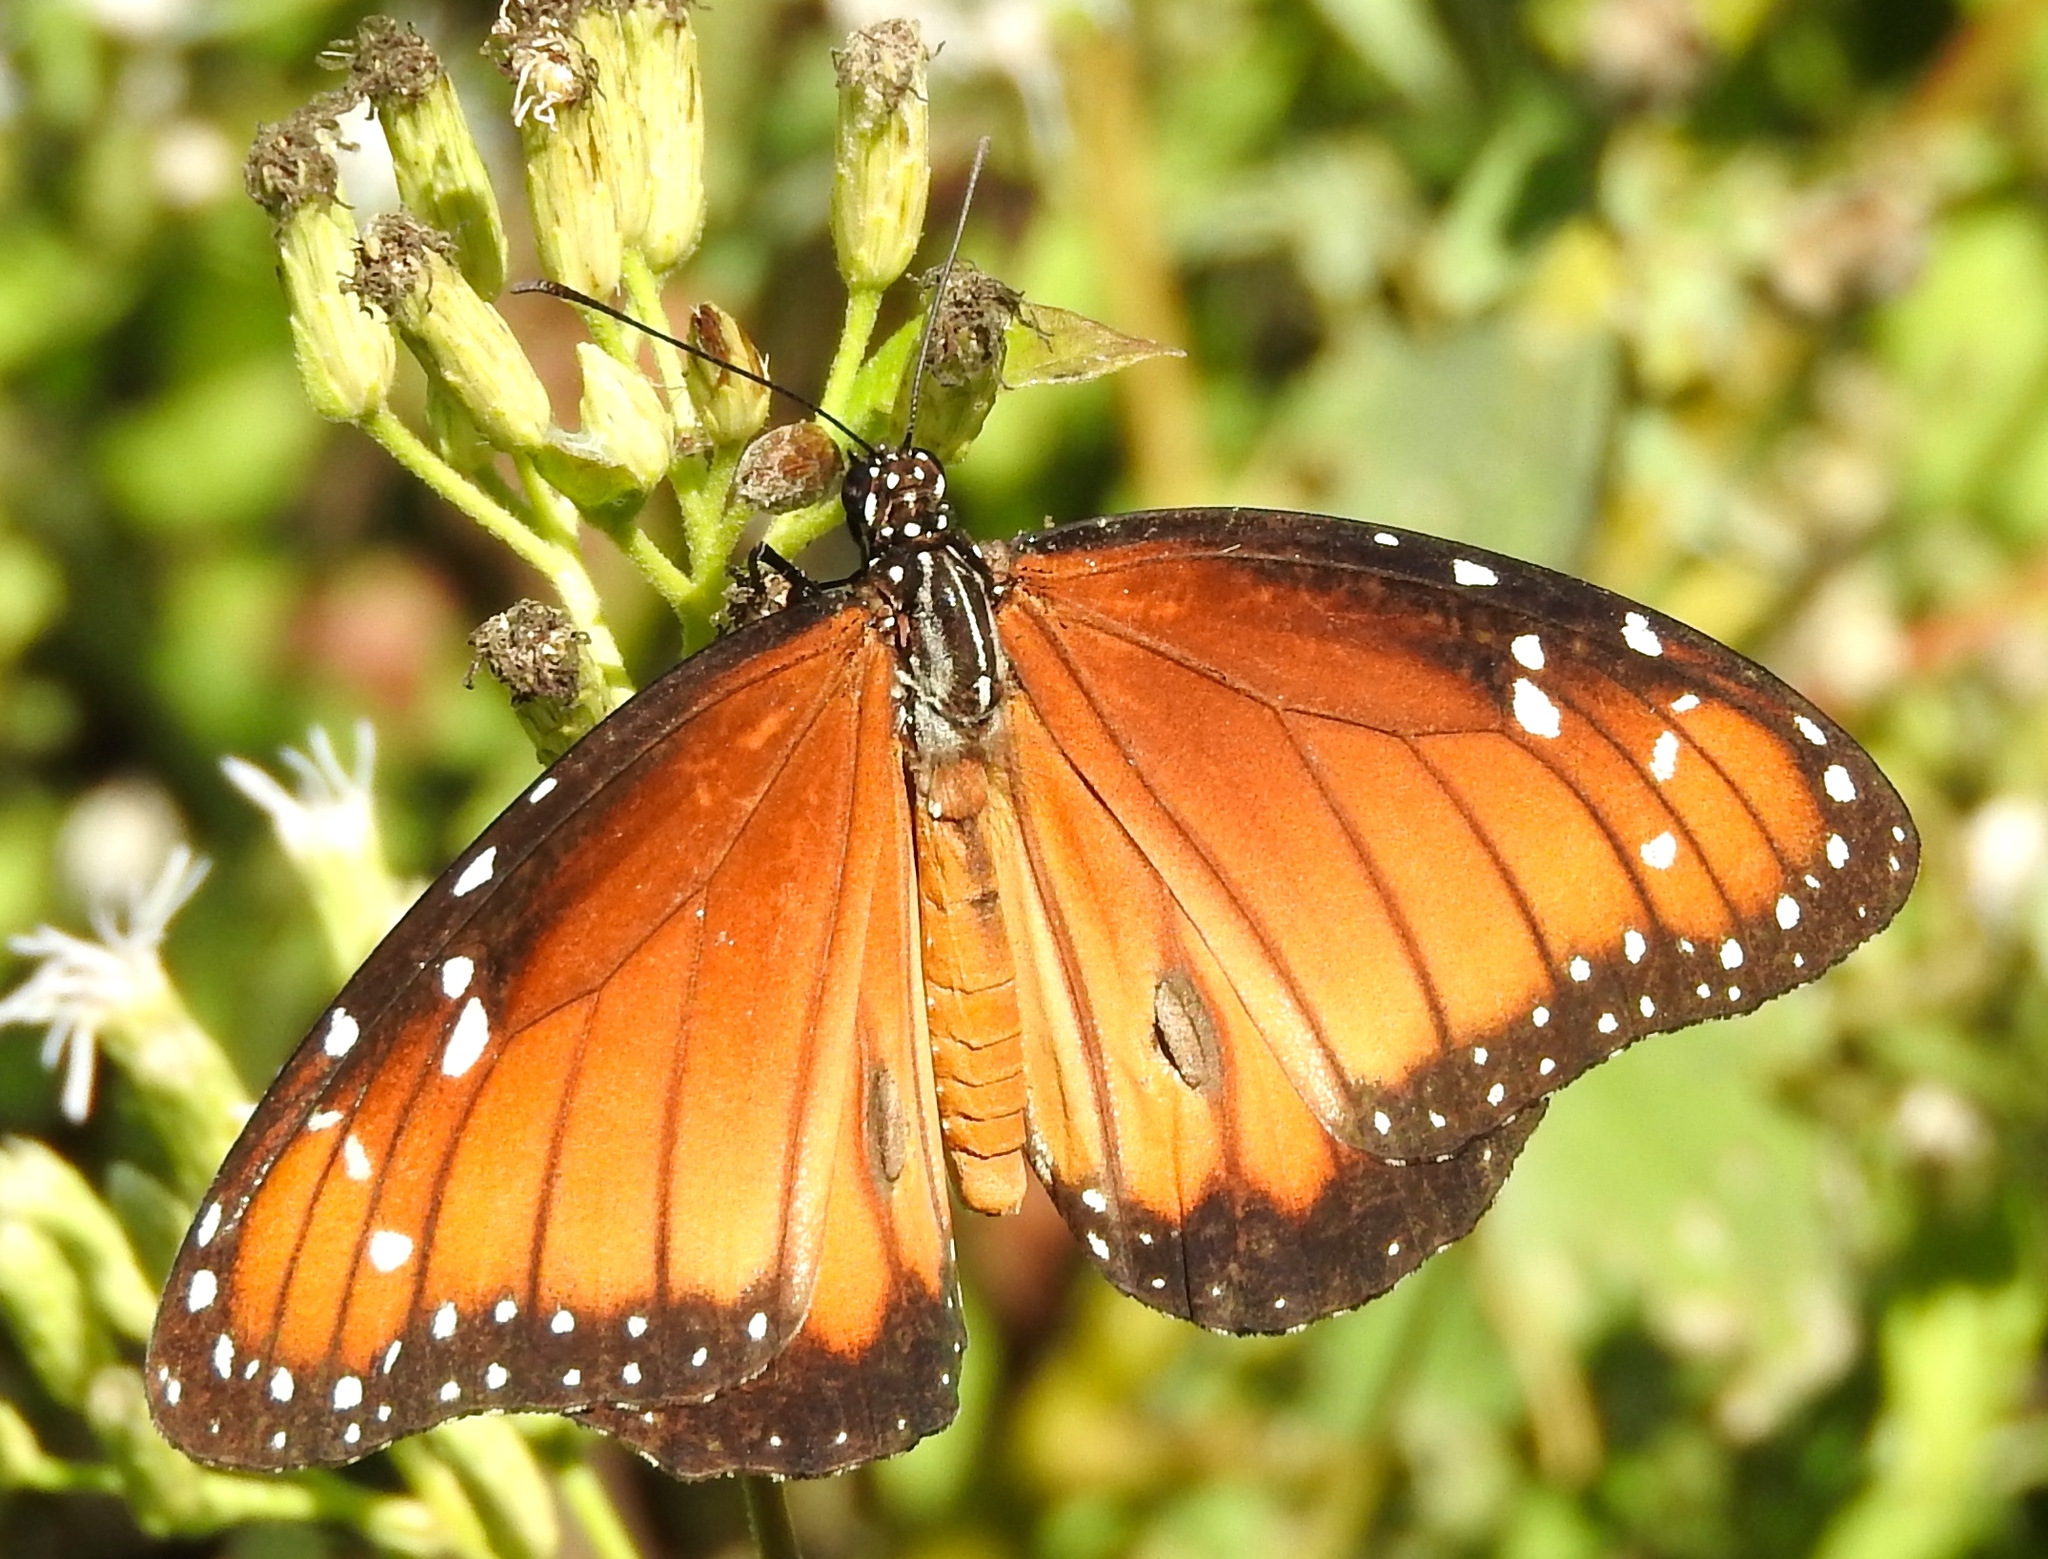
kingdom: Animalia
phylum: Arthropoda
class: Insecta
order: Lepidoptera
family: Nymphalidae
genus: Danaus
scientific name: Danaus eresimus
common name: Soldier
